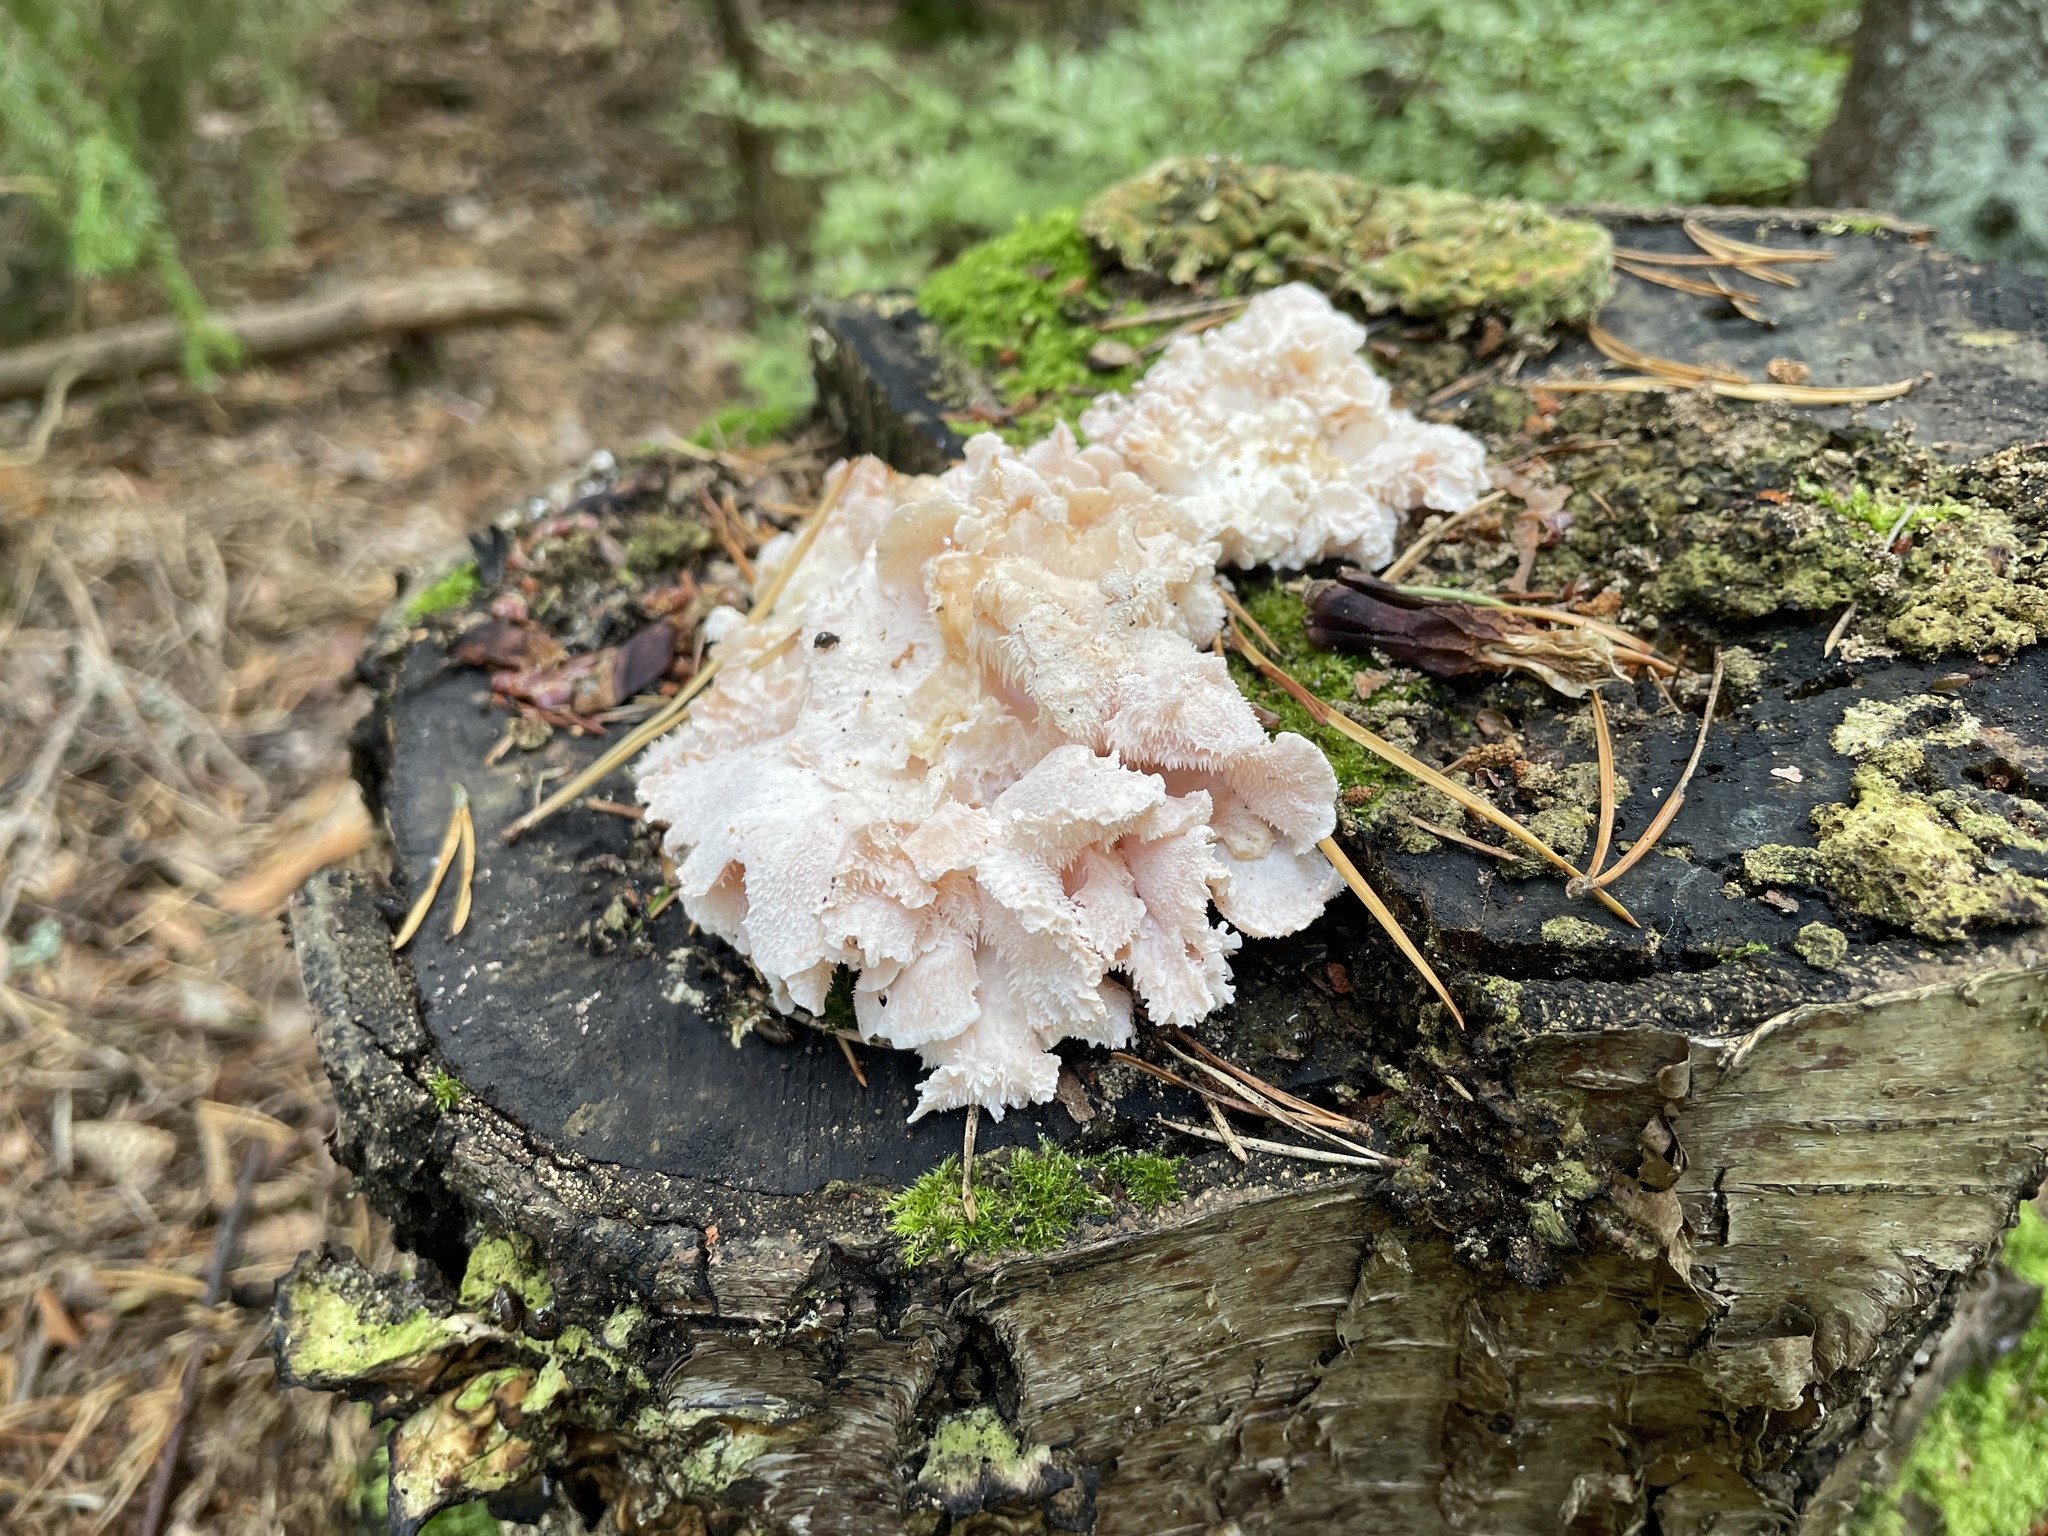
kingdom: Fungi
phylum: Basidiomycota
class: Agaricomycetes
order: Russulales
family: Hericiaceae
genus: Hericium
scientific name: Hericium cirrhatum
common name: Tiered tooth
